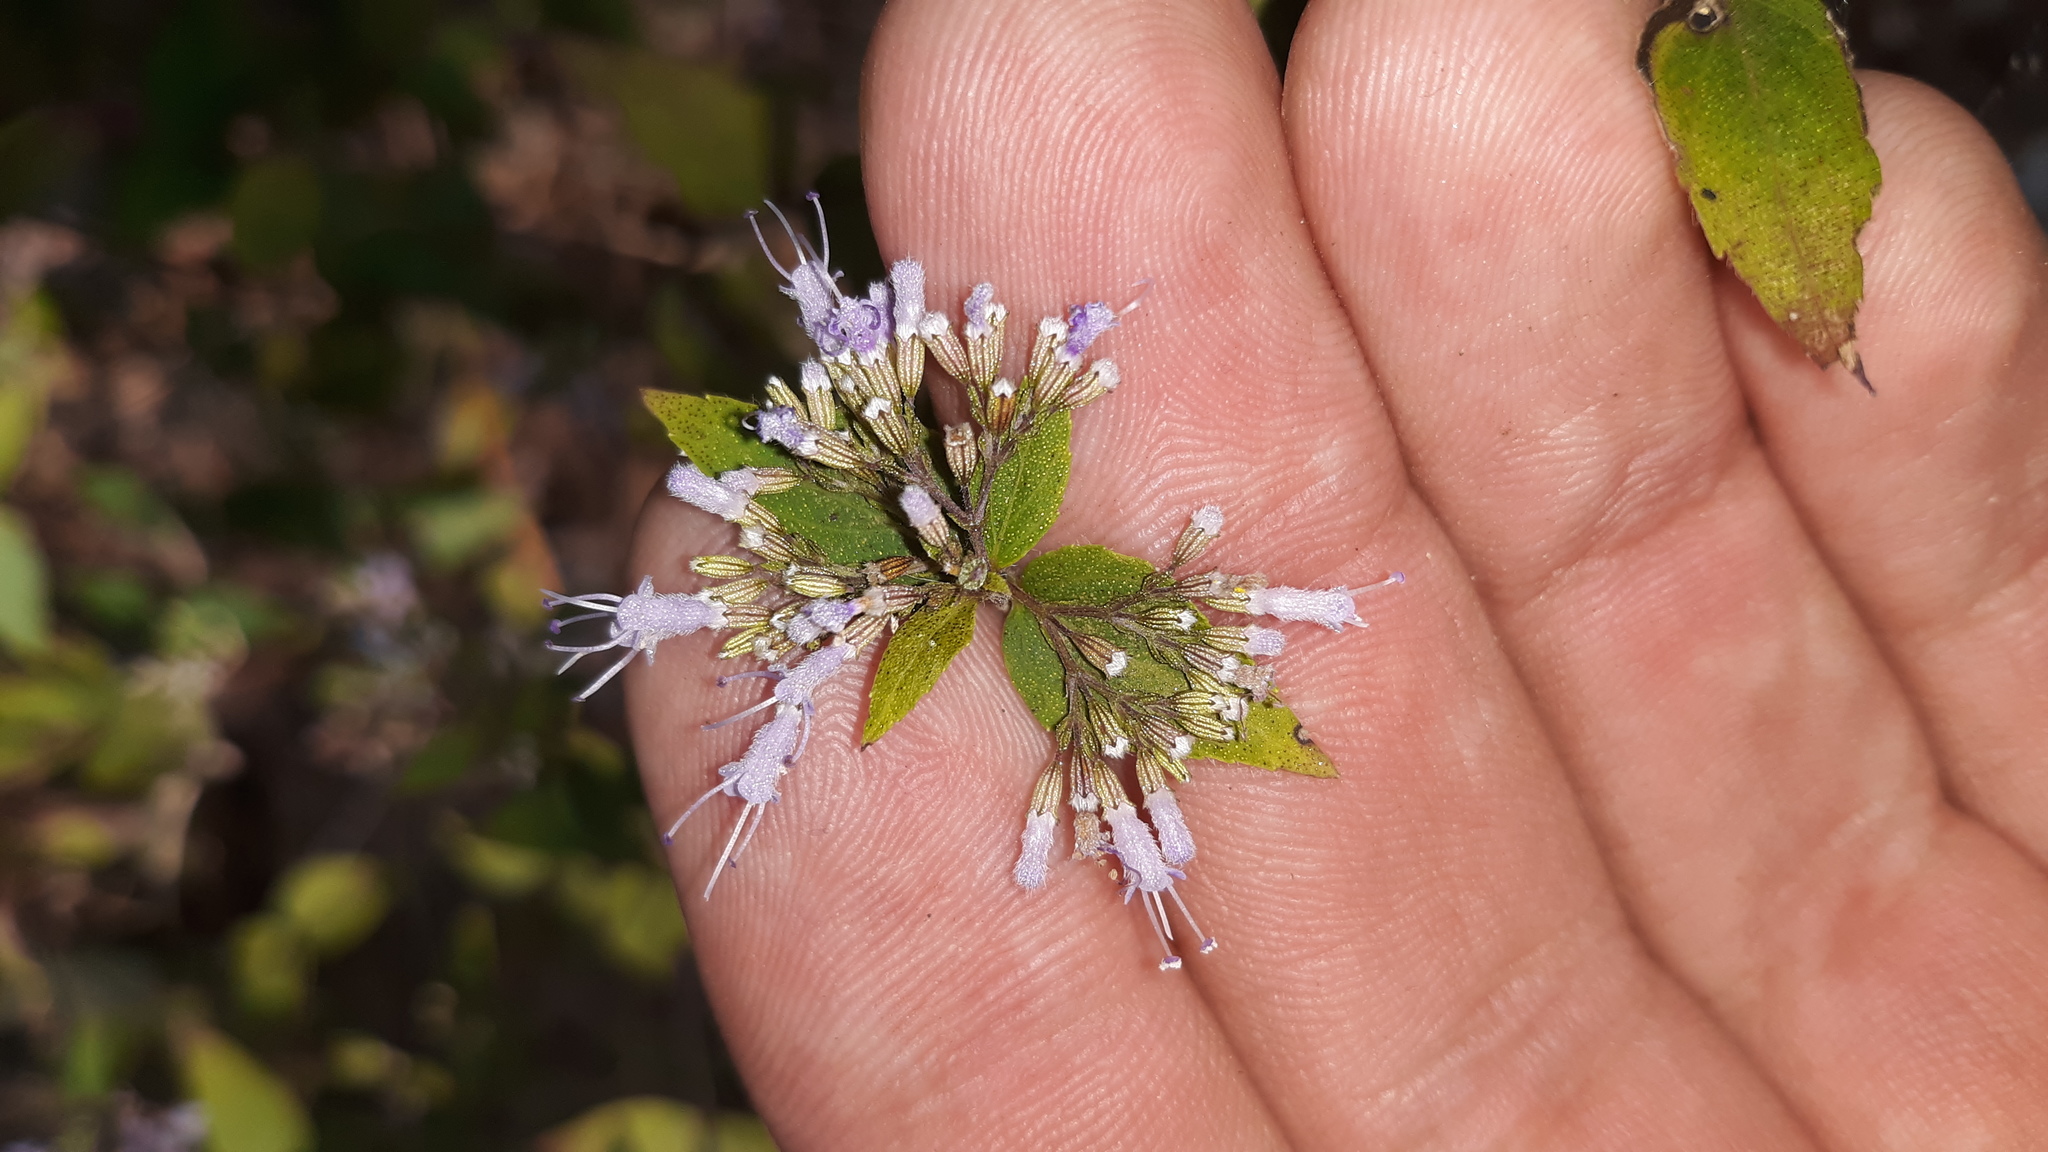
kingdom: Plantae
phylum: Tracheophyta
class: Magnoliopsida
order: Lamiales
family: Lamiaceae
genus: Cunila
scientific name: Cunila origanoides
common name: American dittany
